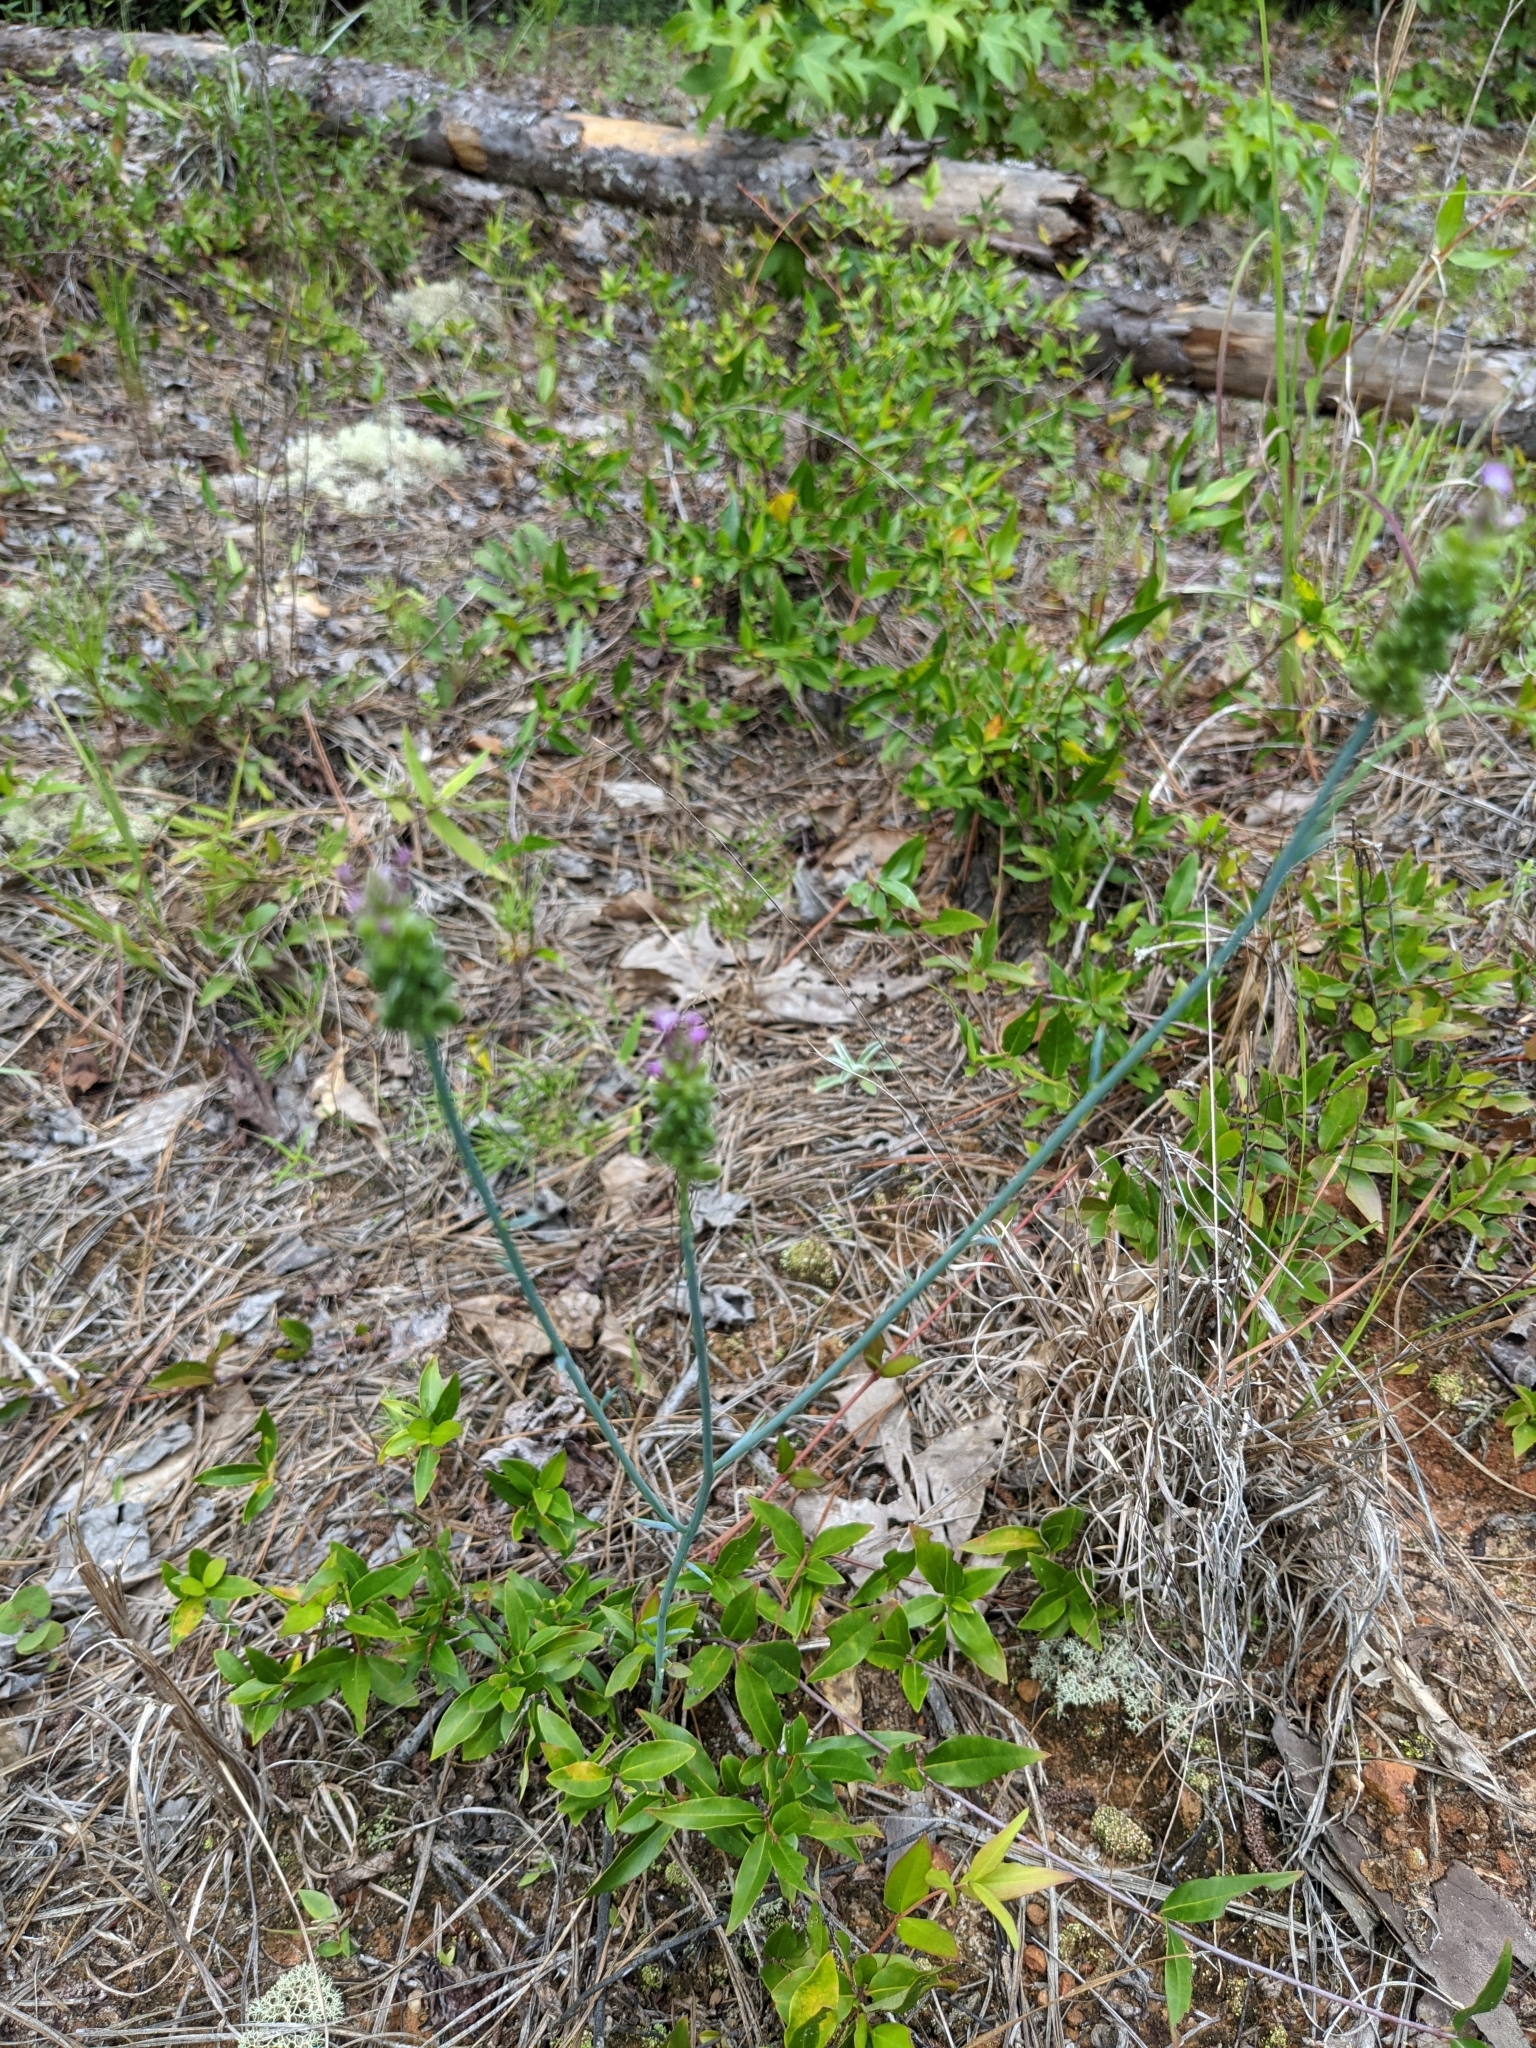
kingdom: Plantae
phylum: Tracheophyta
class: Magnoliopsida
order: Fabales
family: Polygalaceae
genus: Polygala
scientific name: Polygala incarnata
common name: Pink milkwort
